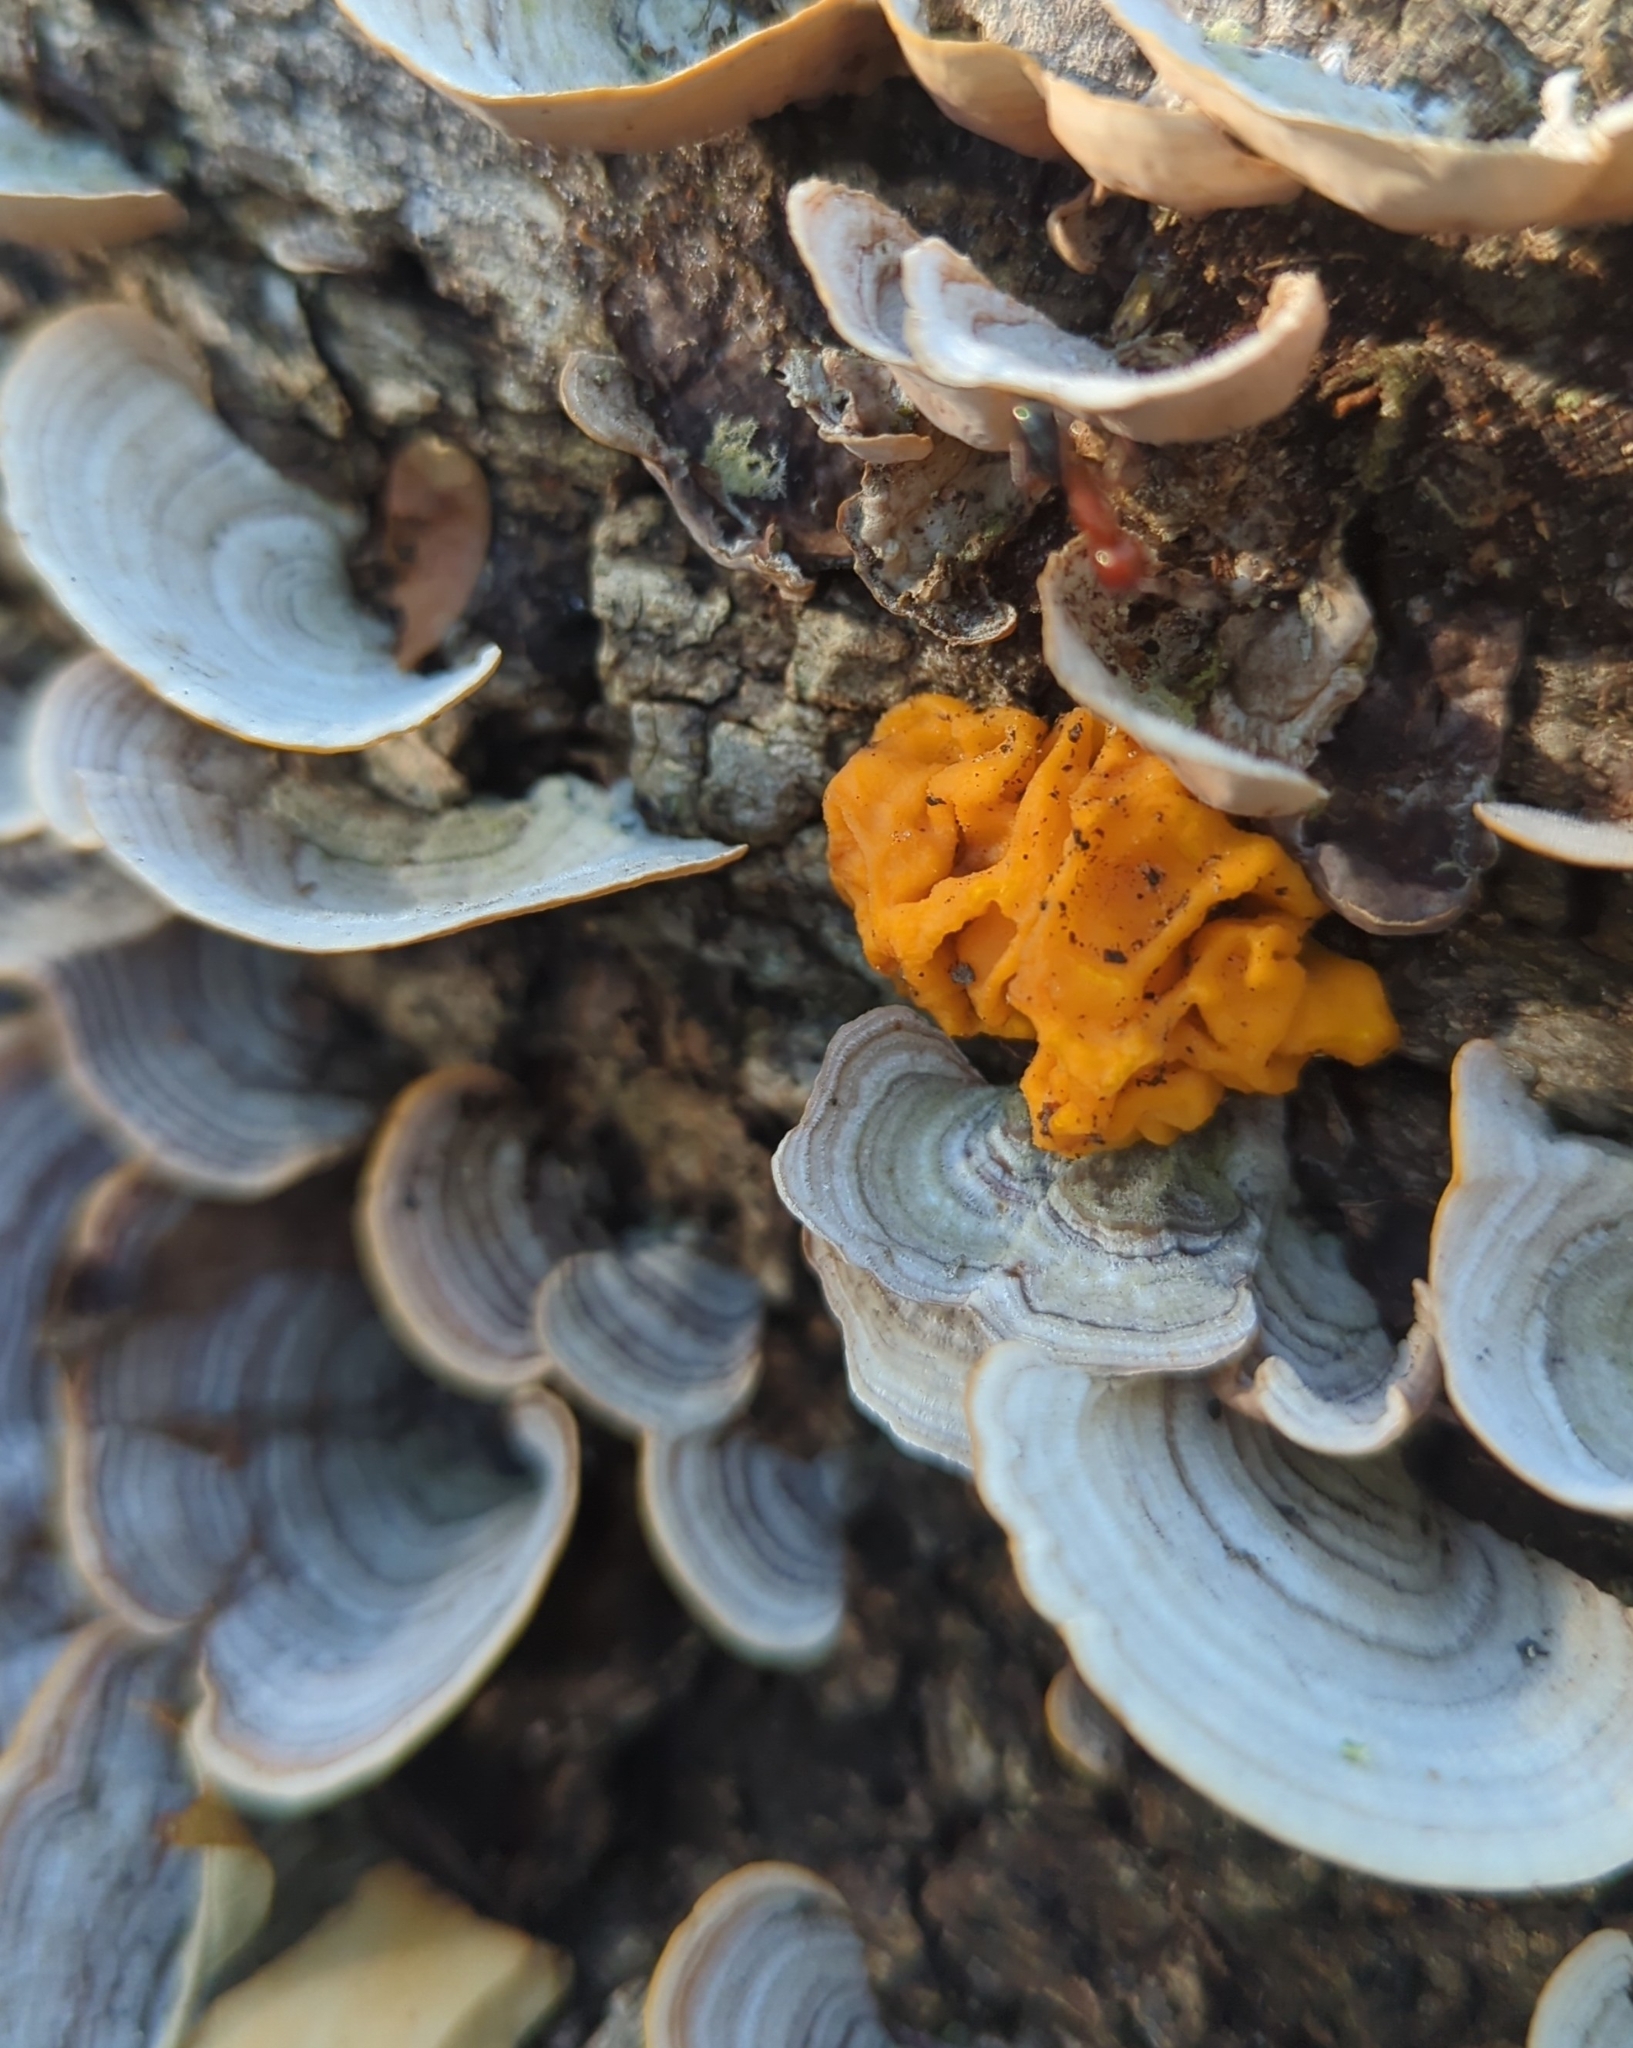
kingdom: Fungi
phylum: Basidiomycota
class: Tremellomycetes
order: Tremellales
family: Naemateliaceae
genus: Naematelia
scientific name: Naematelia aurantia
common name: Golden ear
